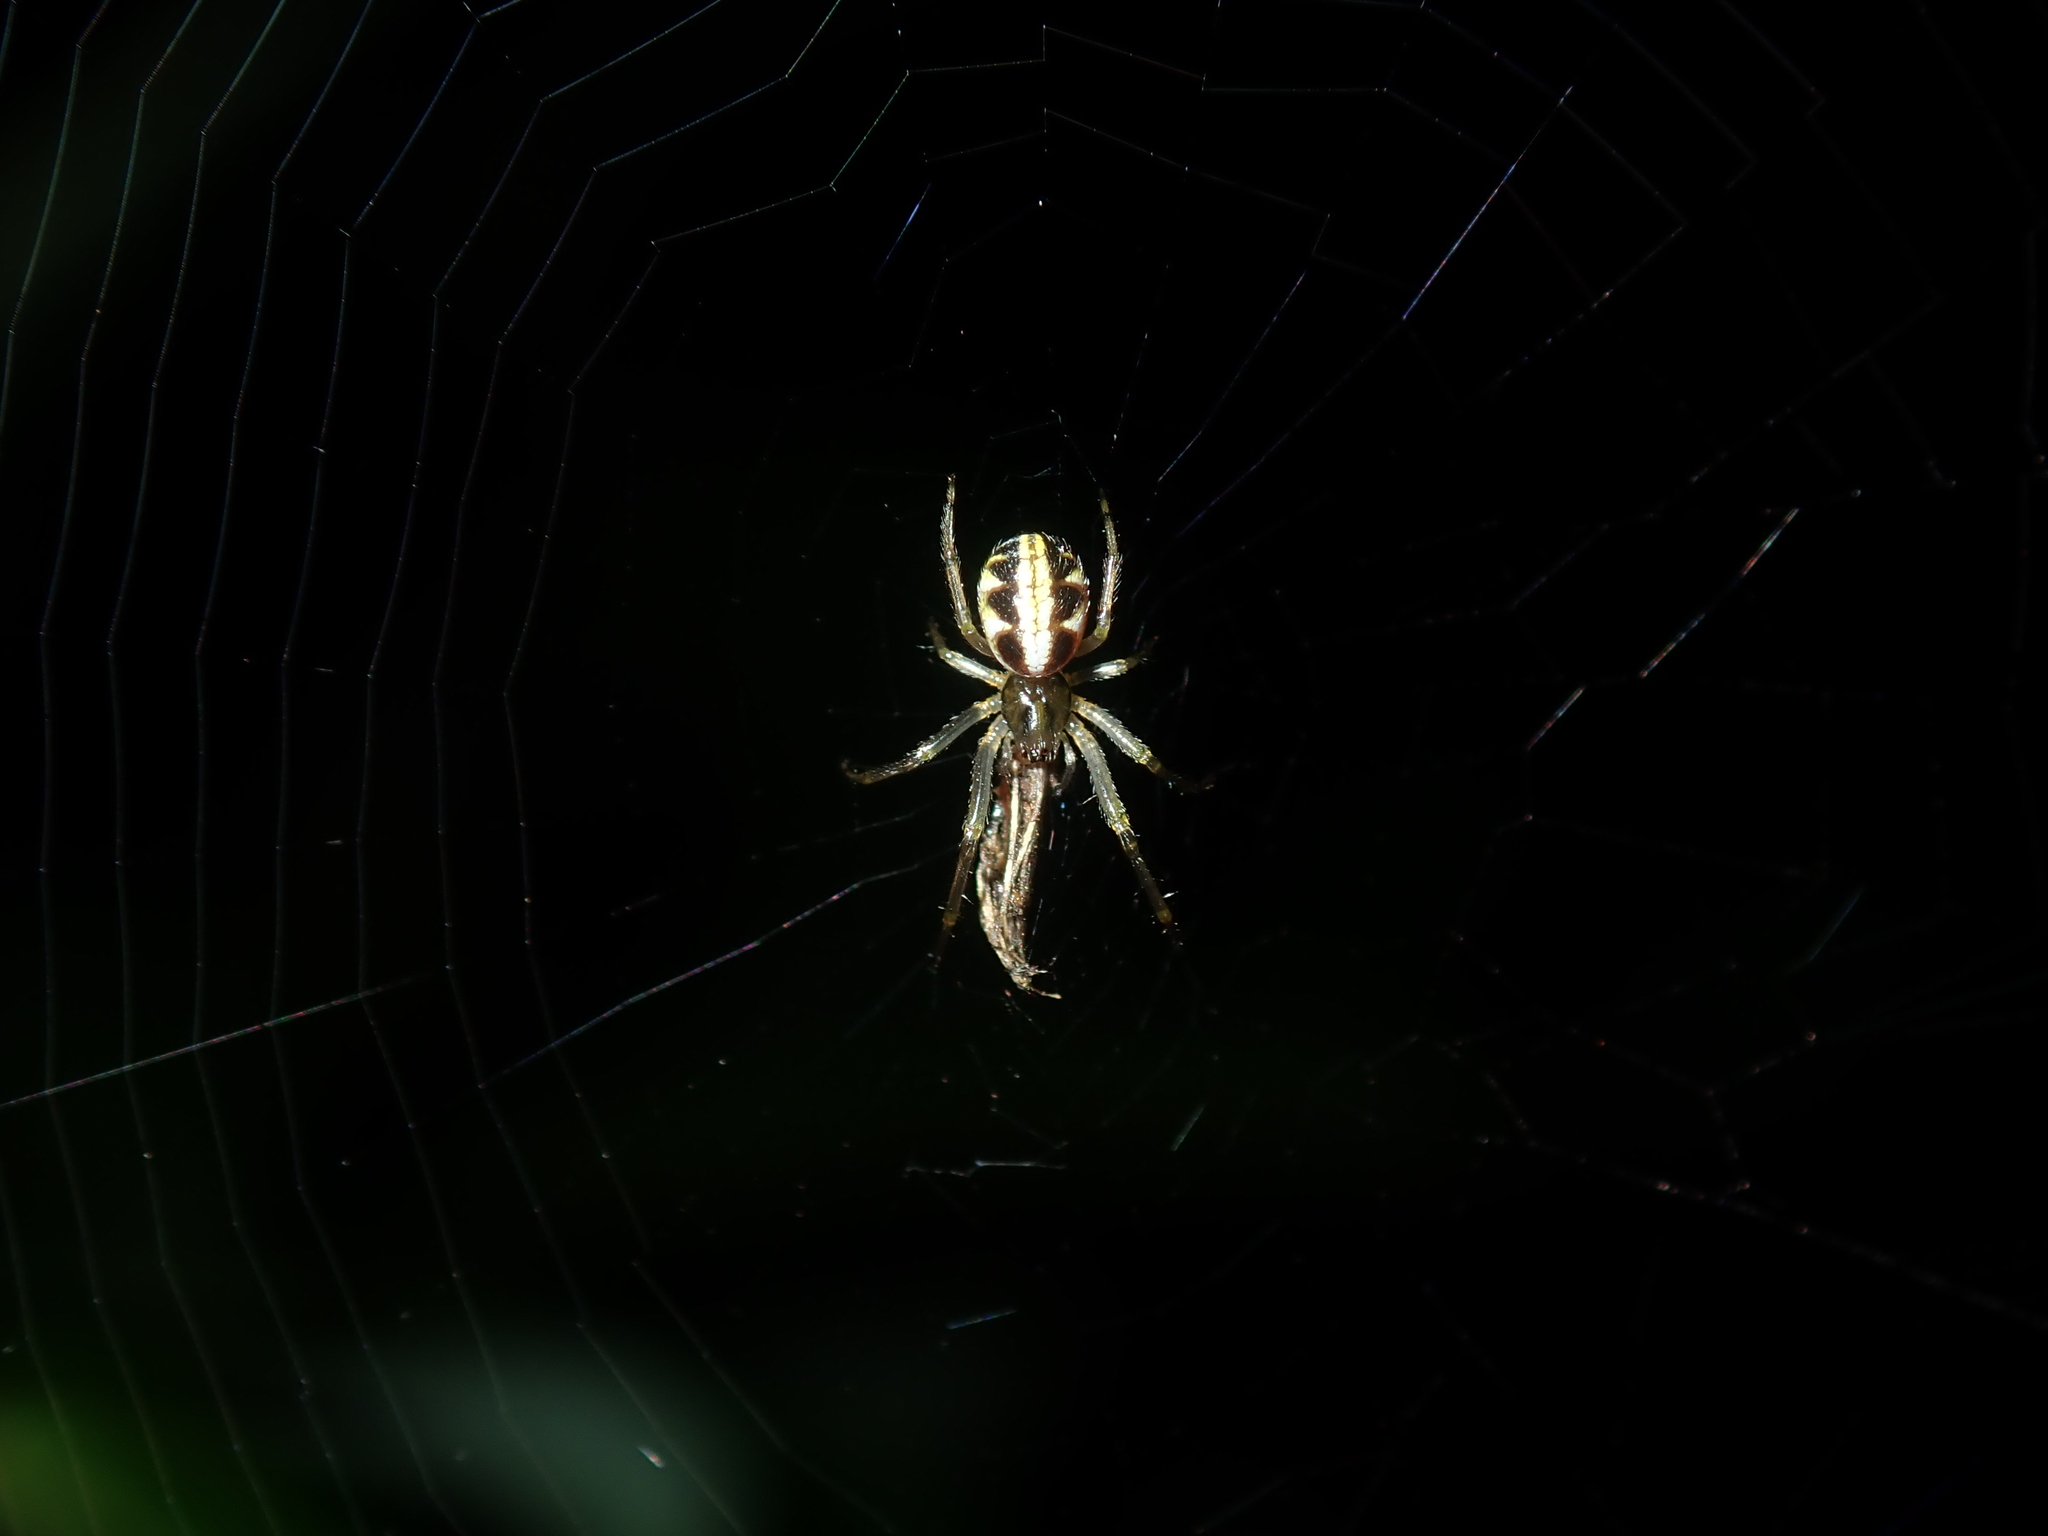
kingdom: Animalia
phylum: Arthropoda
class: Arachnida
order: Araneae
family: Araneidae
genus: Phonognatha
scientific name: Phonognatha graeffei
